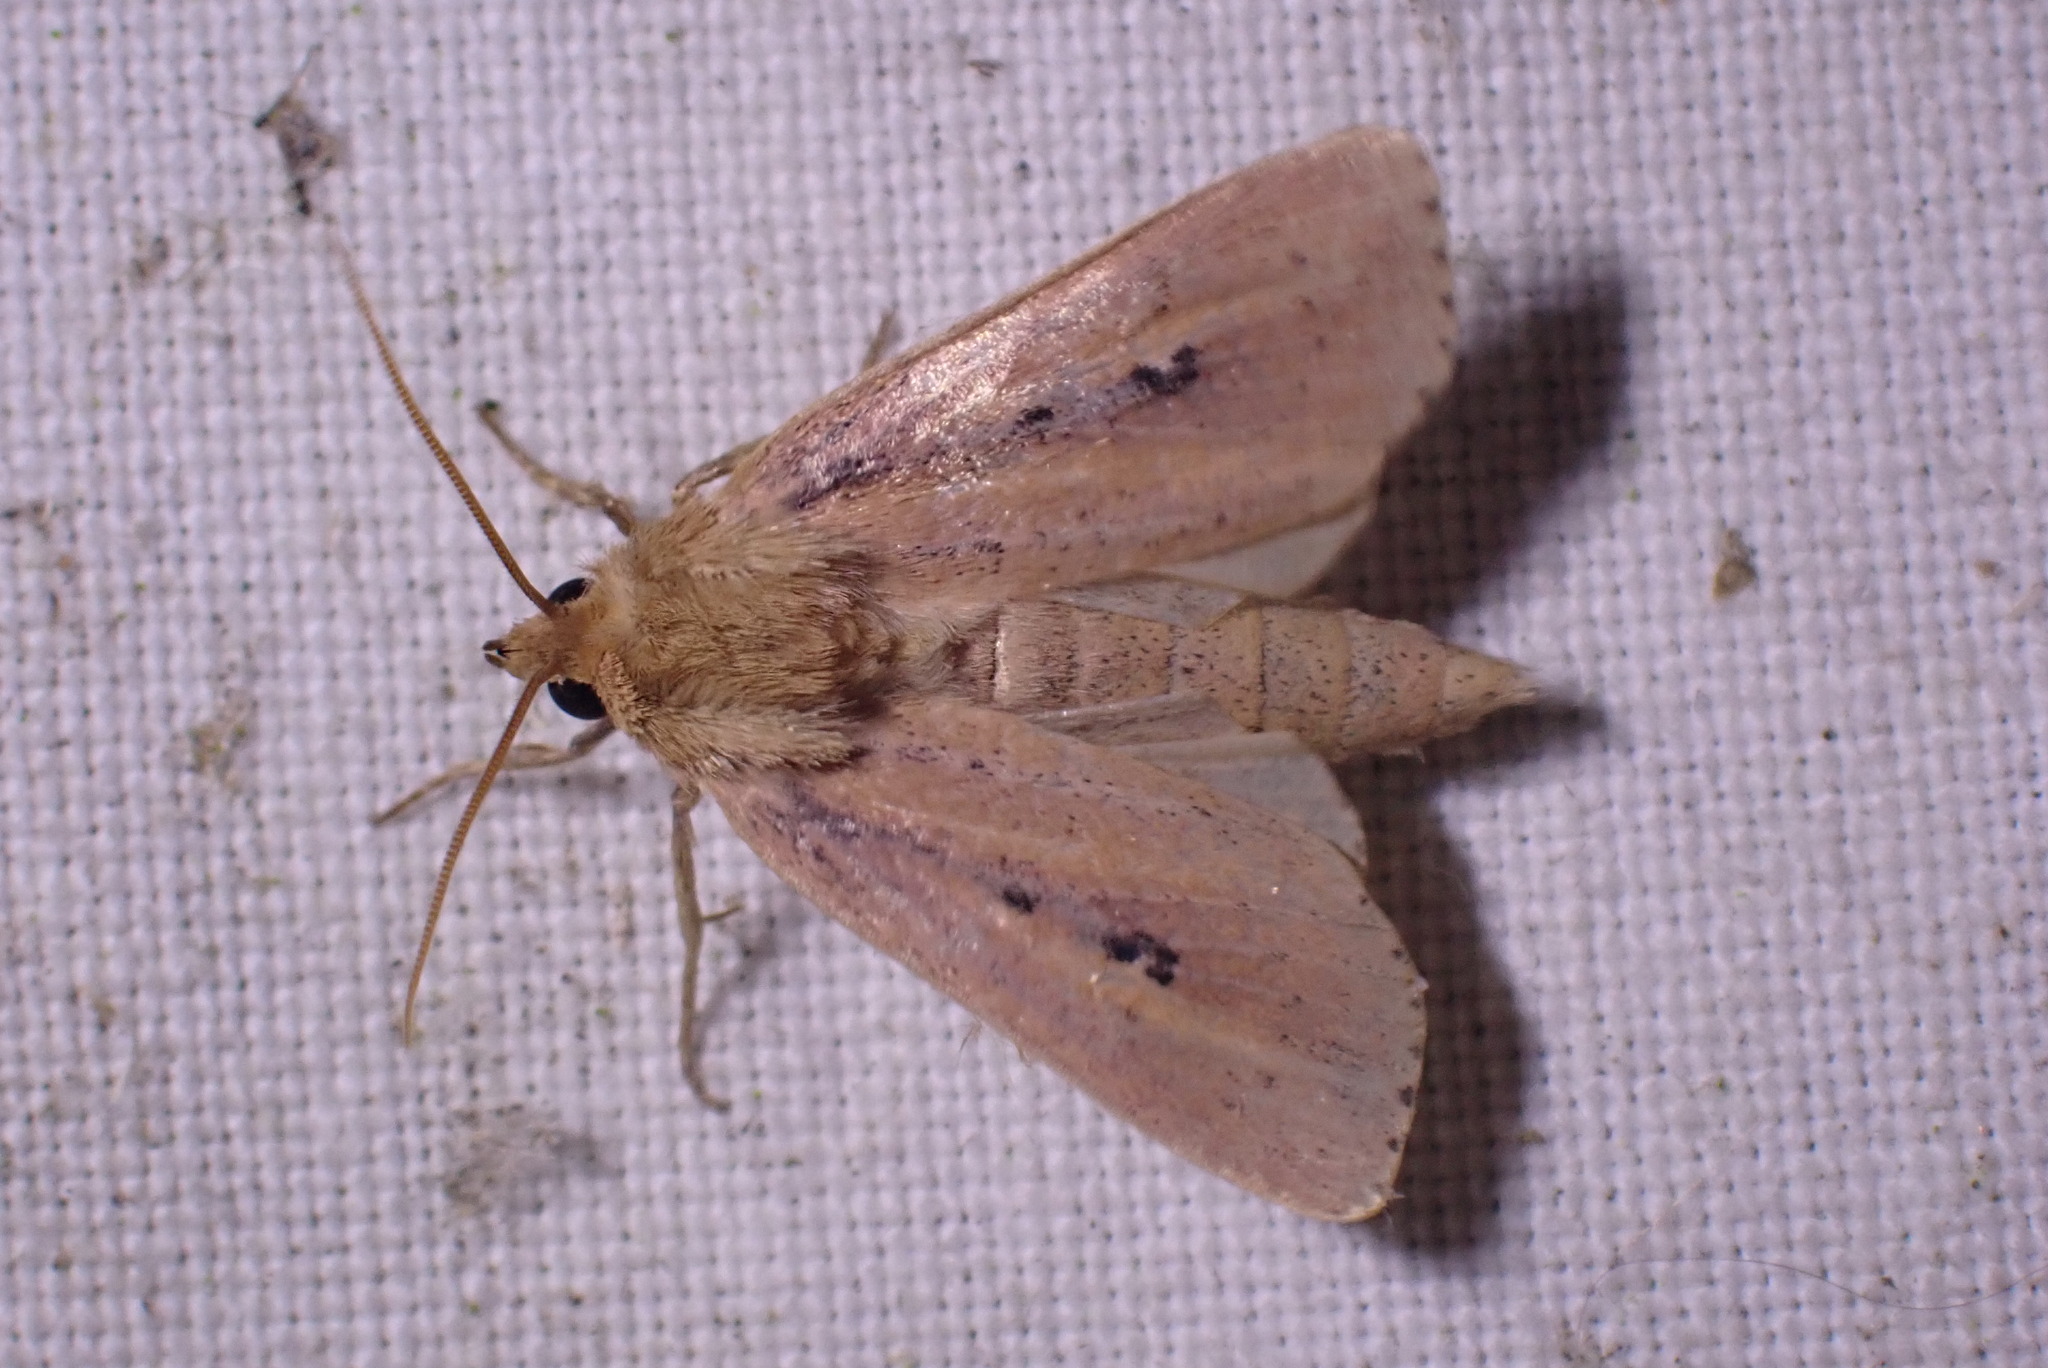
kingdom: Animalia
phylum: Arthropoda
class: Insecta
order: Lepidoptera
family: Noctuidae
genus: Globia
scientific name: Globia sparganii
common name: Webb's wainscot
